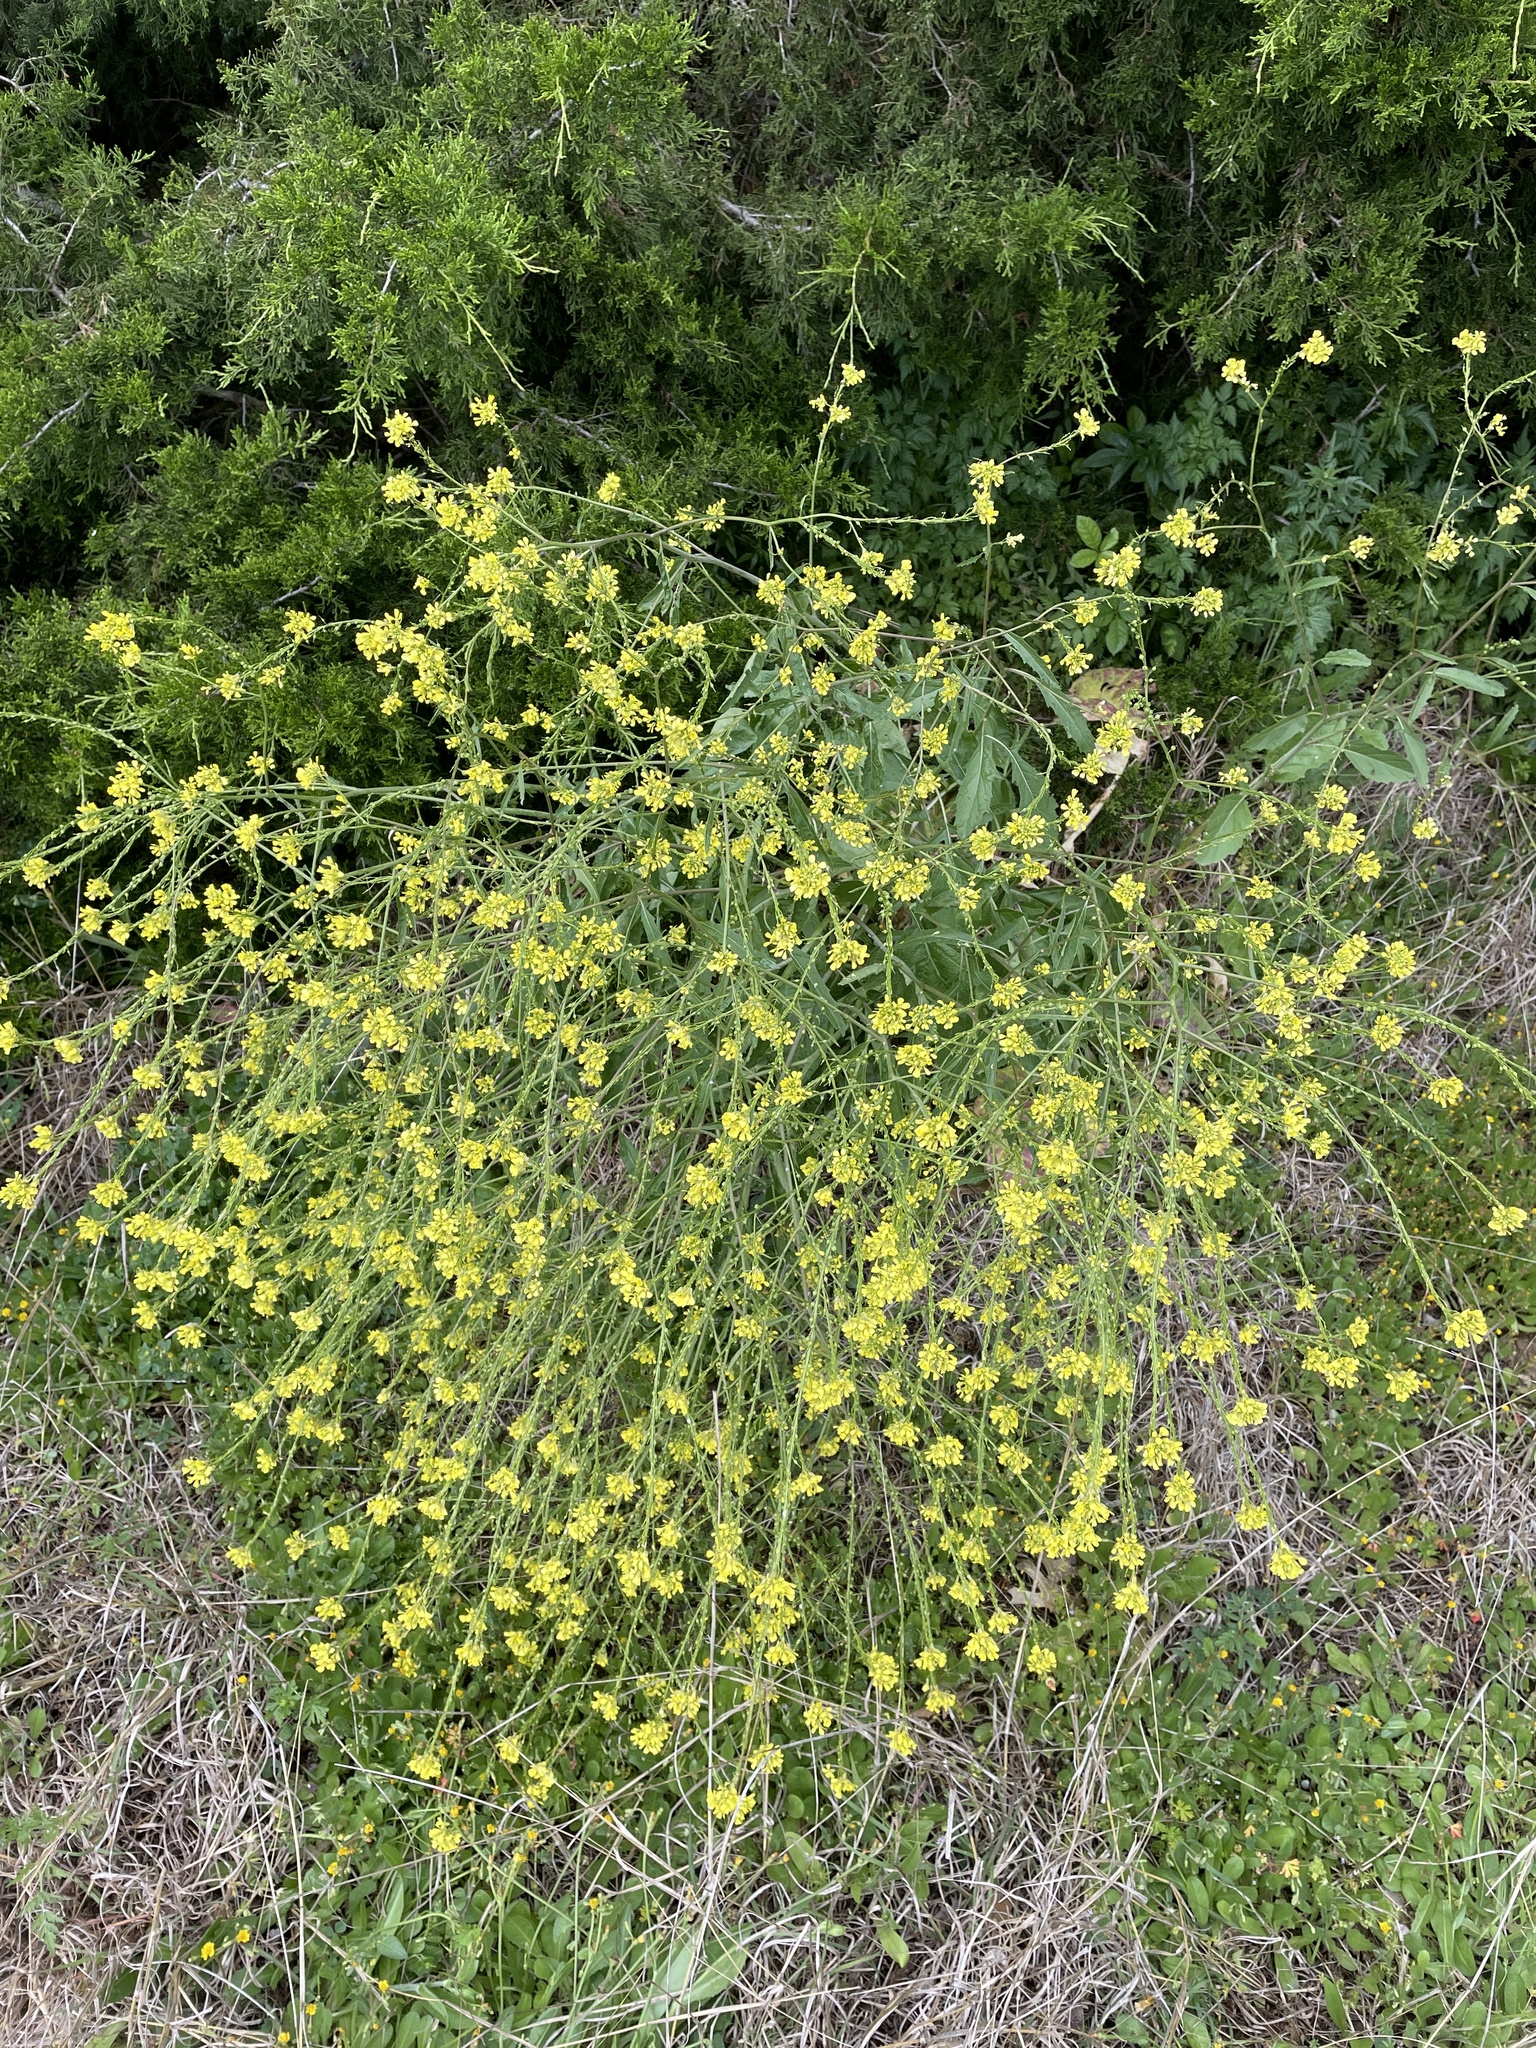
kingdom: Plantae
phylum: Tracheophyta
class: Magnoliopsida
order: Brassicales
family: Brassicaceae
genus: Rapistrum
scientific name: Rapistrum rugosum
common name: Annual bastardcabbage
